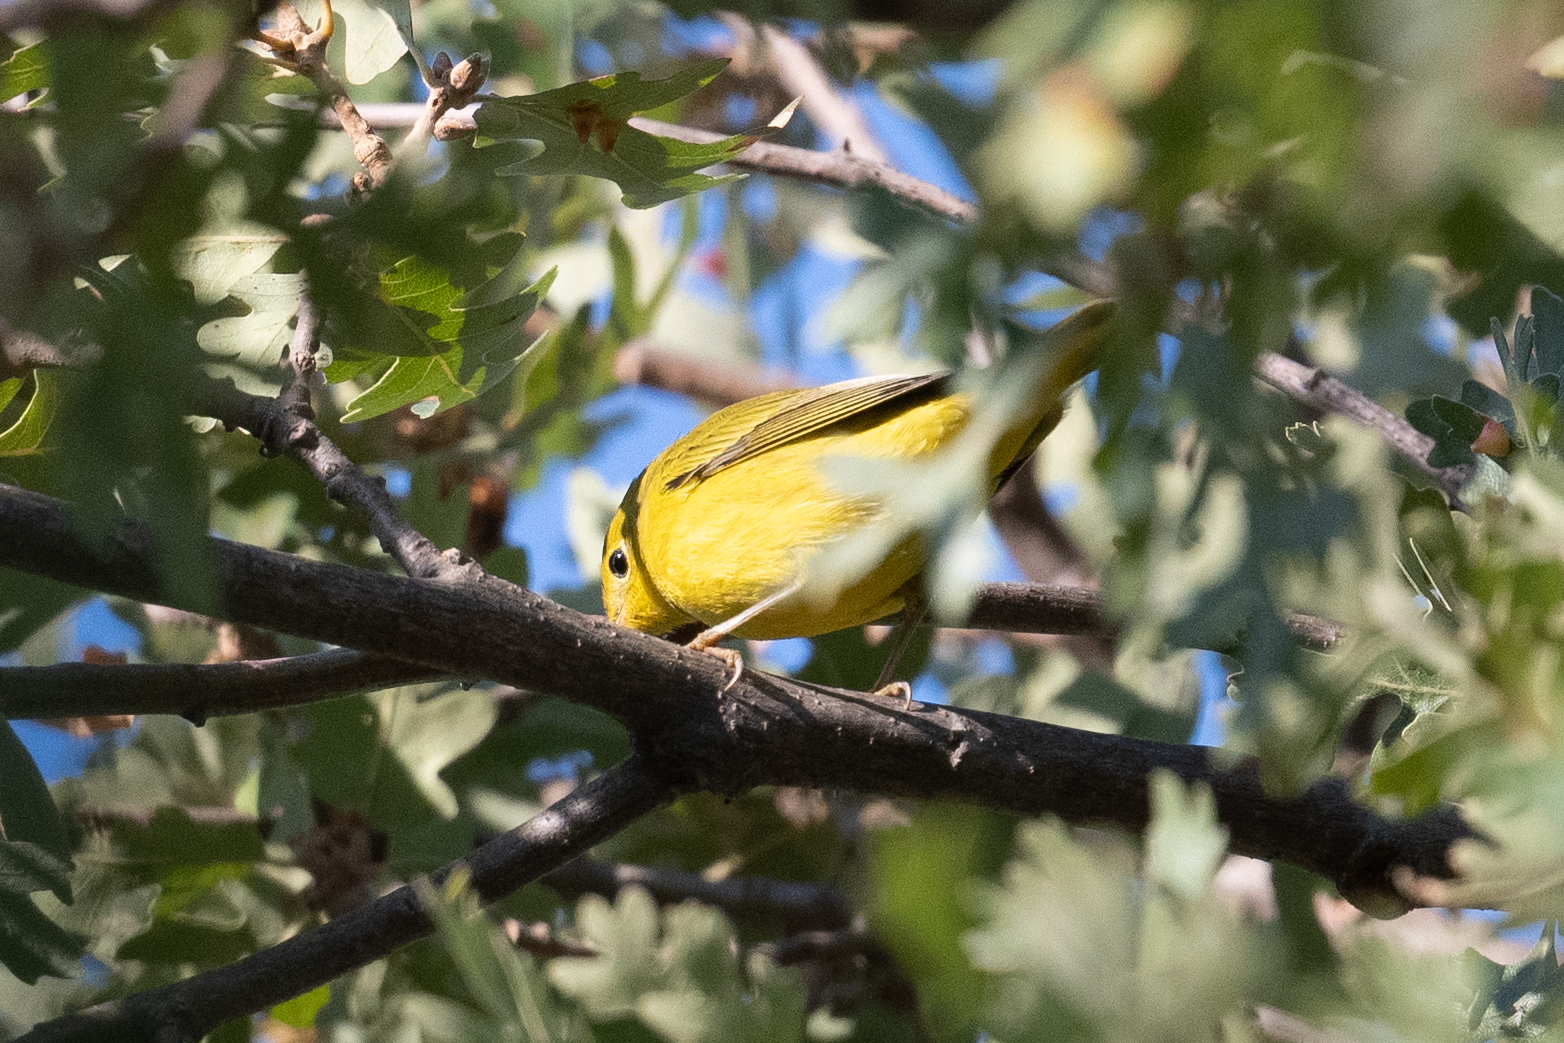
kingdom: Animalia
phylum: Chordata
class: Aves
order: Passeriformes
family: Parulidae
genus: Setophaga
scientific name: Setophaga petechia
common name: Yellow warbler
